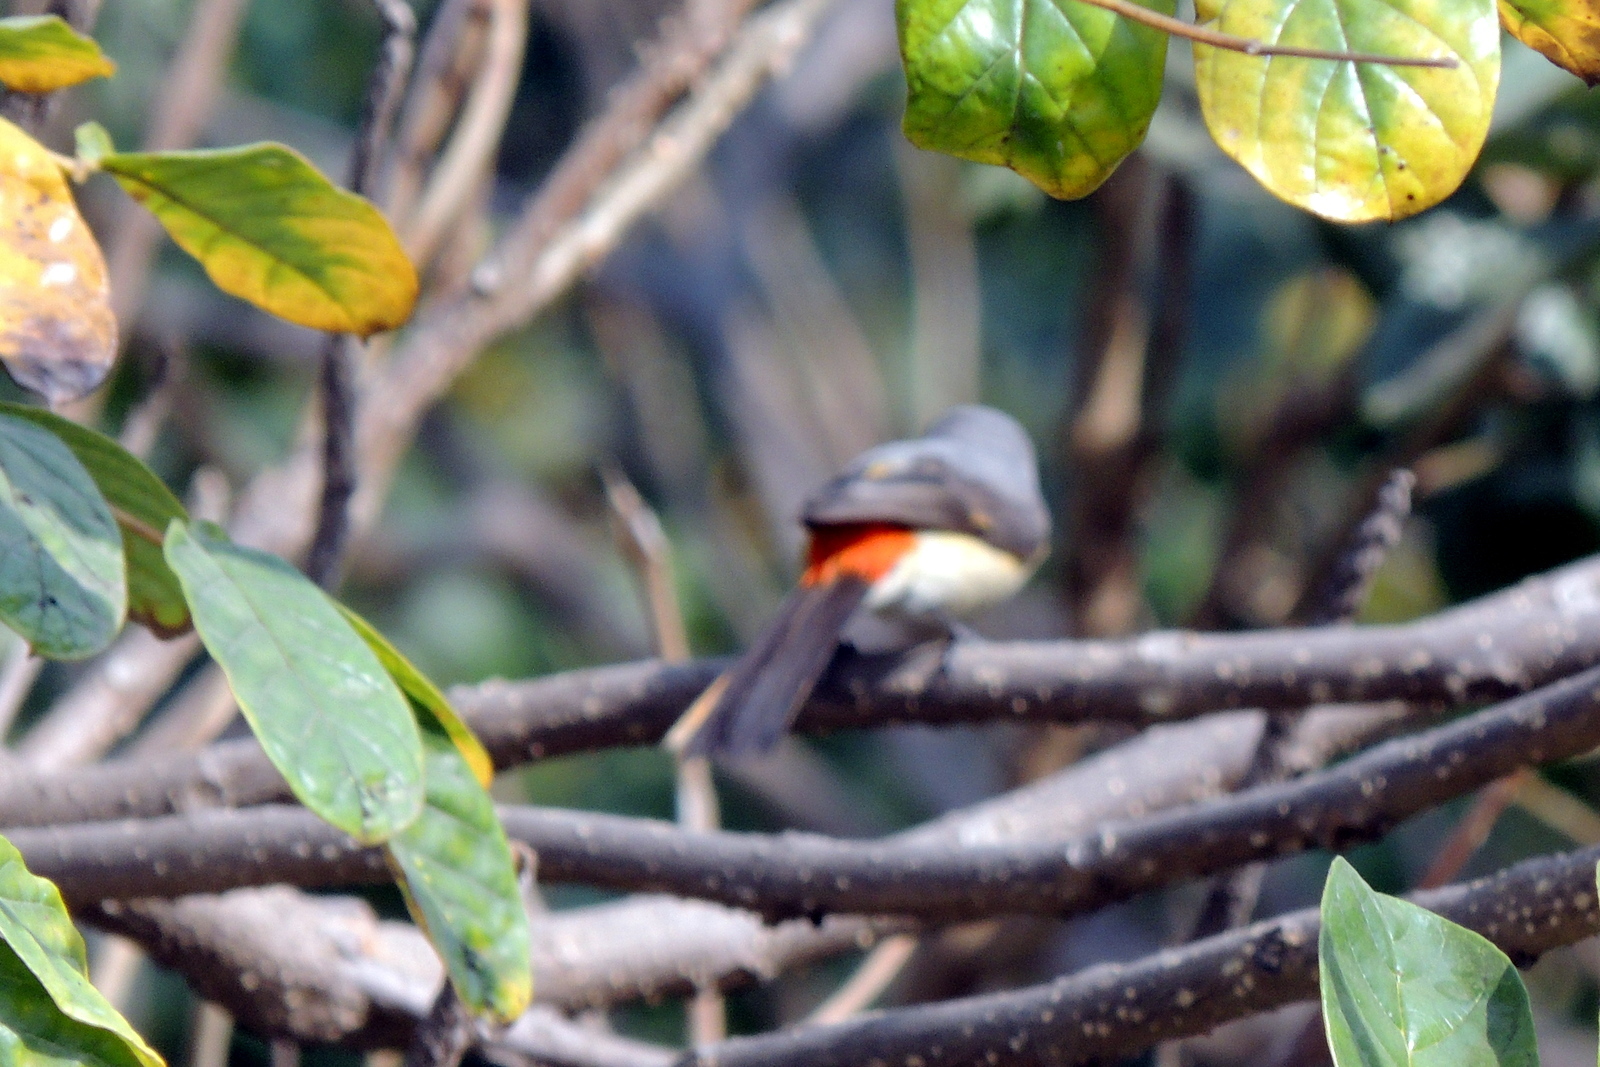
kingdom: Animalia
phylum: Chordata
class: Aves
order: Passeriformes
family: Campephagidae
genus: Pericrocotus
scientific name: Pericrocotus cinnamomeus
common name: Small minivet
